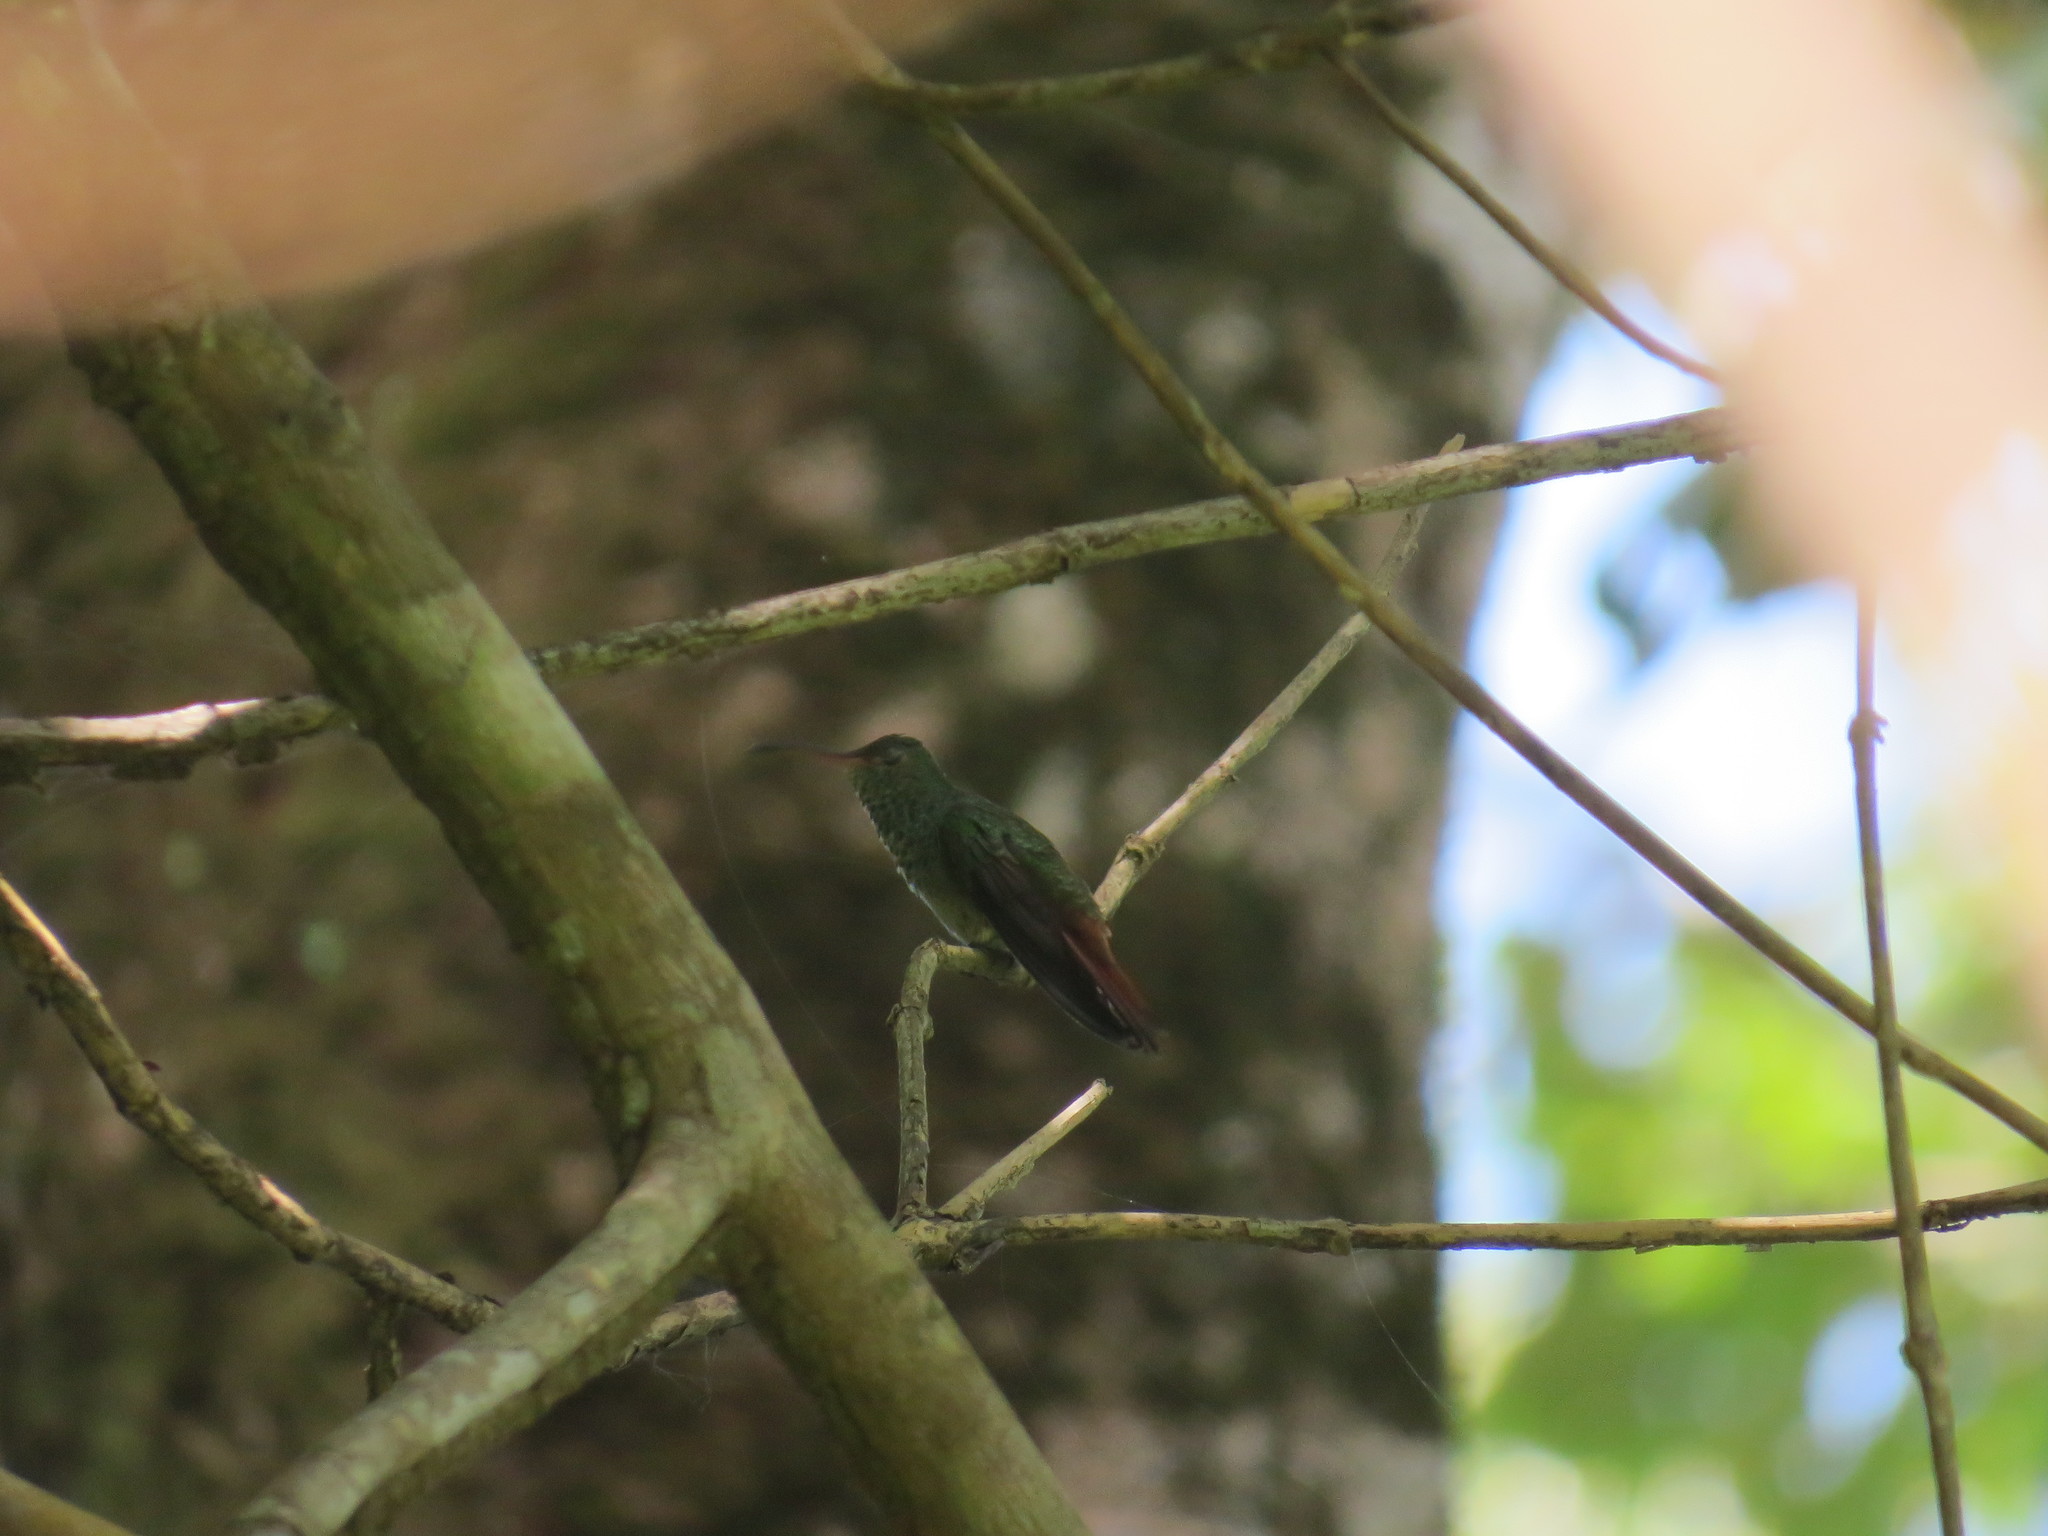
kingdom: Animalia
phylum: Chordata
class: Aves
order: Apodiformes
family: Trochilidae
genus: Amazilia
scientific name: Amazilia tzacatl
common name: Rufous-tailed hummingbird
